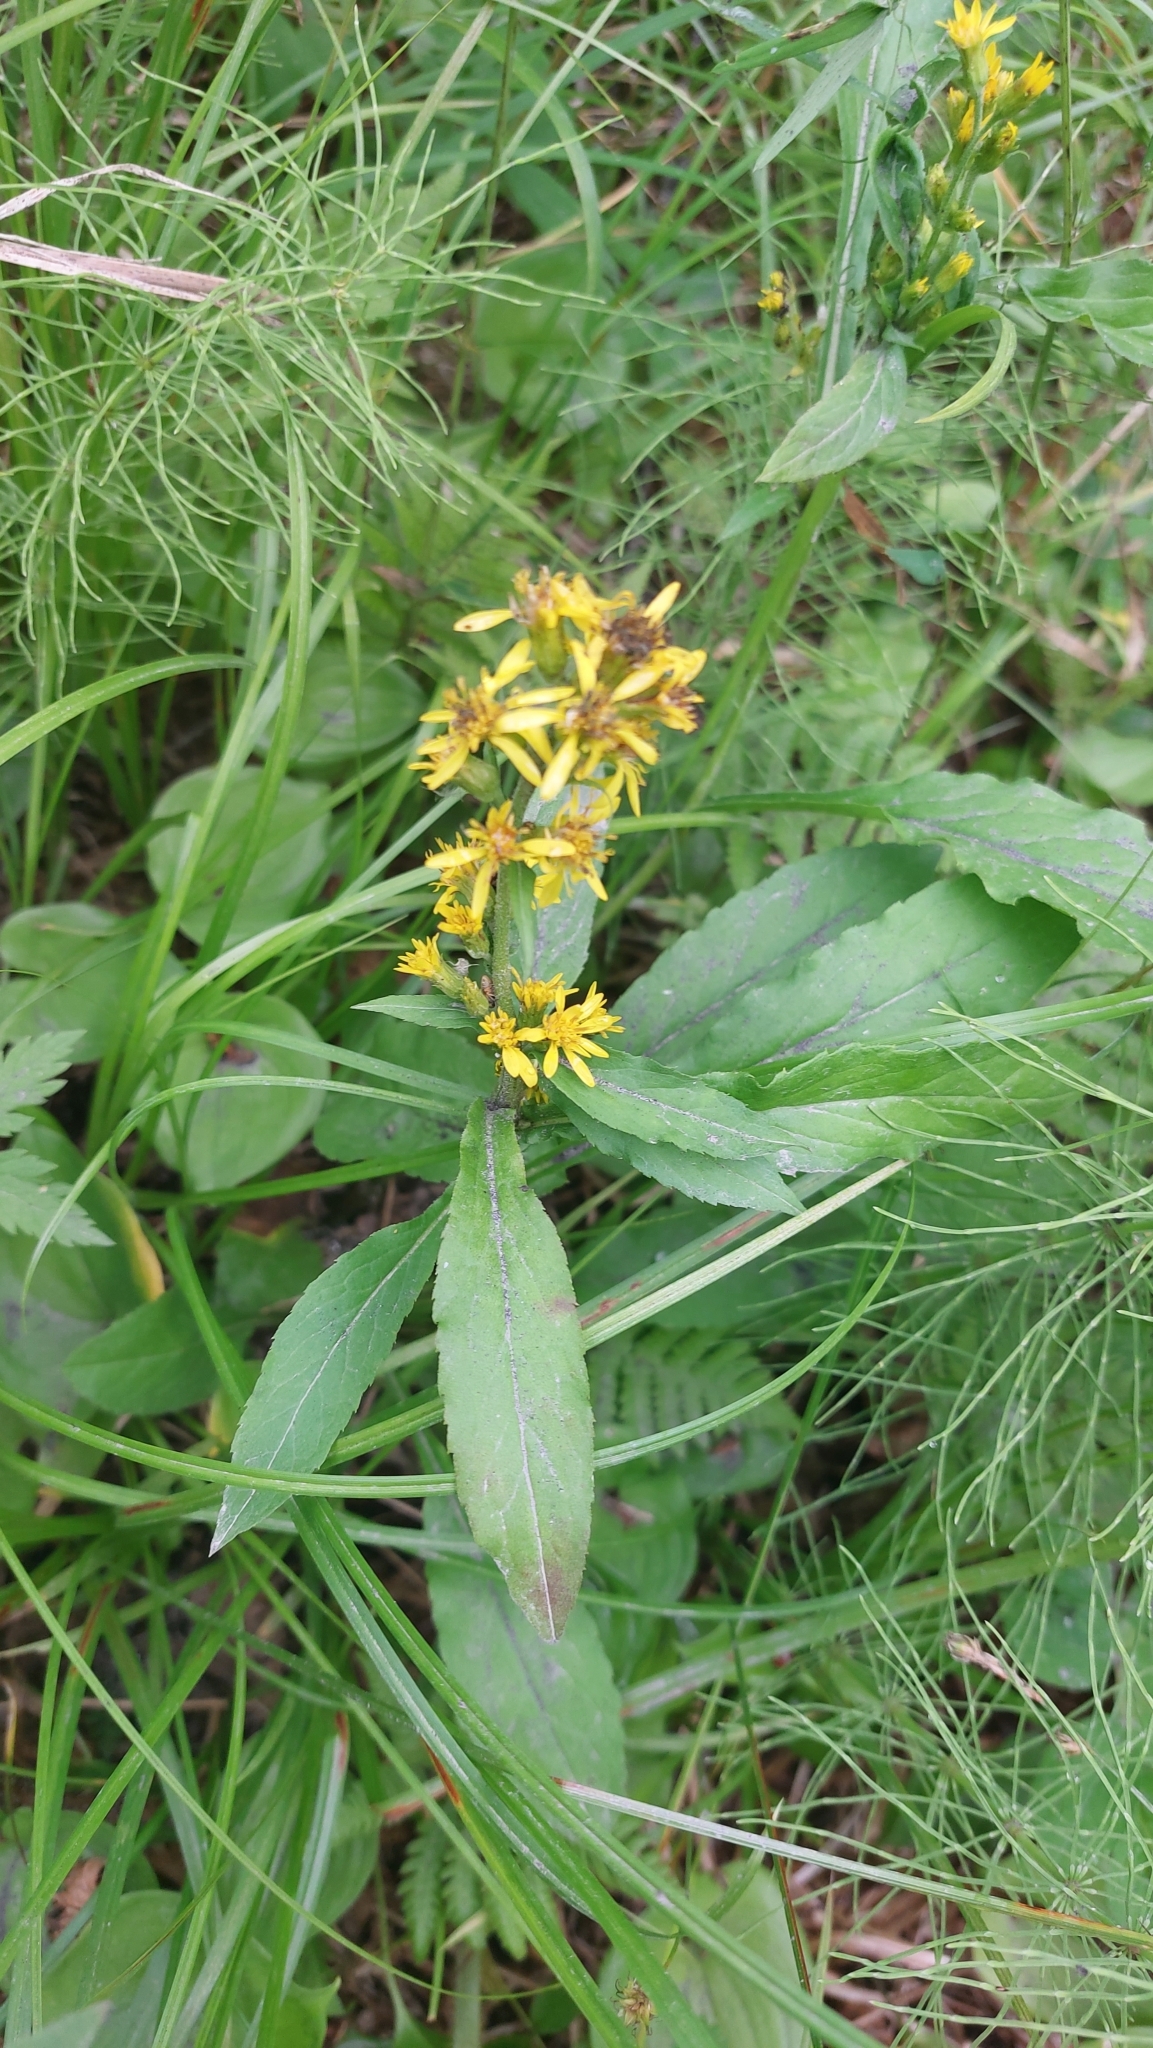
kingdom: Plantae
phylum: Tracheophyta
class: Magnoliopsida
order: Asterales
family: Asteraceae
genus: Solidago
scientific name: Solidago cuprea
